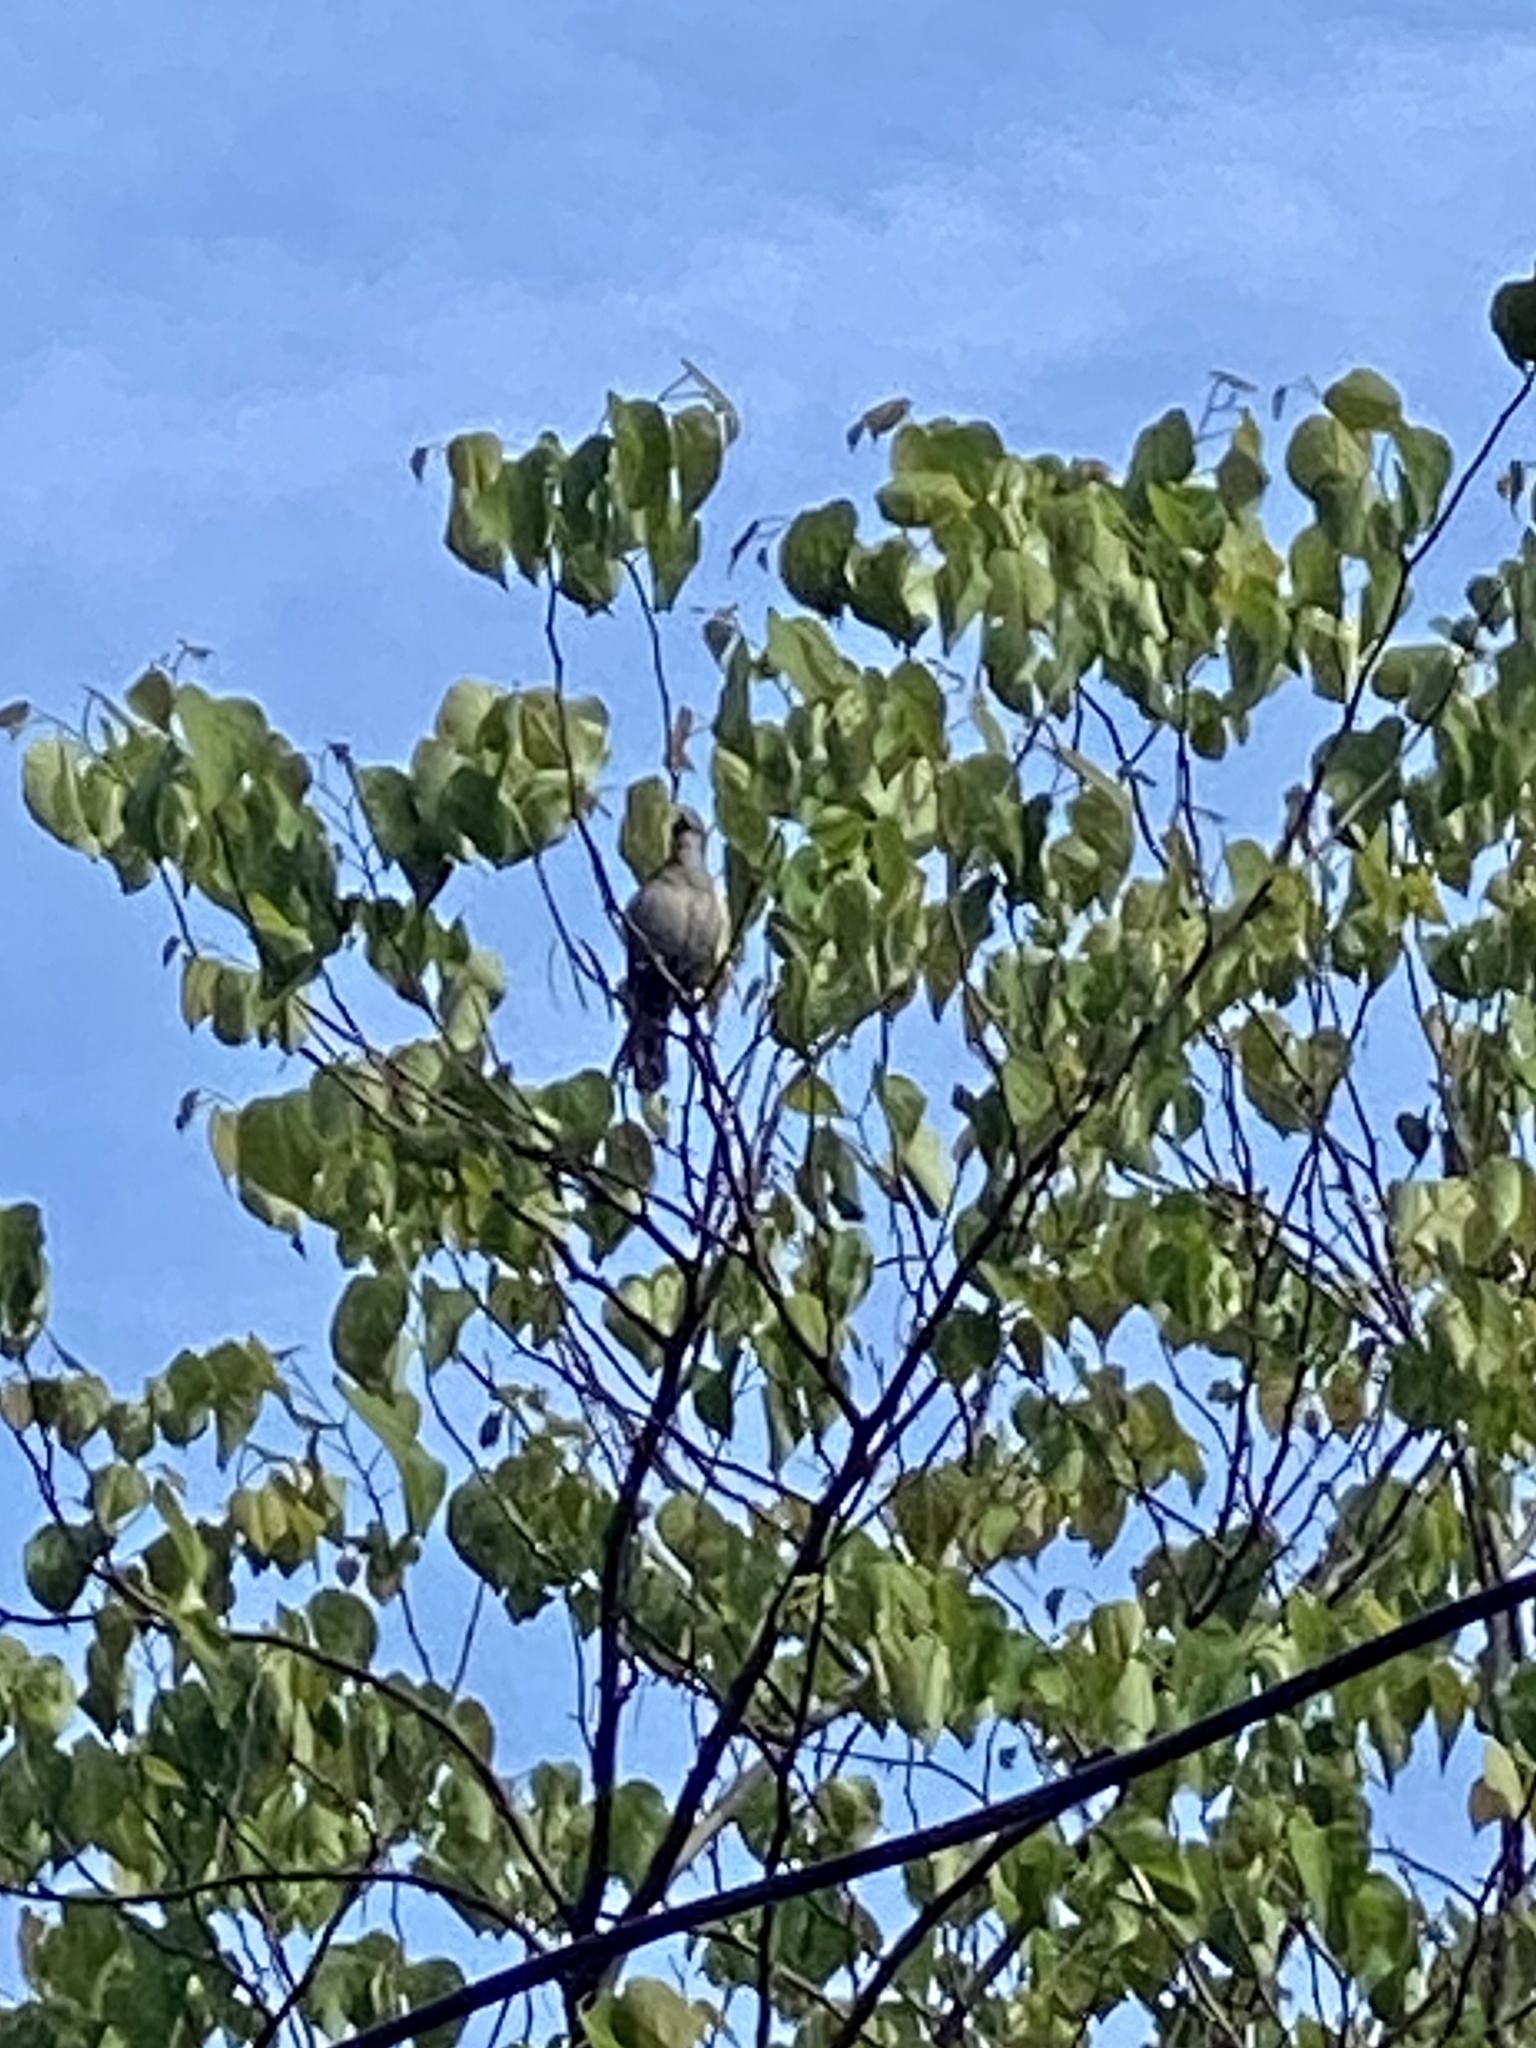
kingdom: Animalia
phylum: Chordata
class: Aves
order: Passeriformes
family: Mimidae
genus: Dumetella
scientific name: Dumetella carolinensis
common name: Gray catbird
